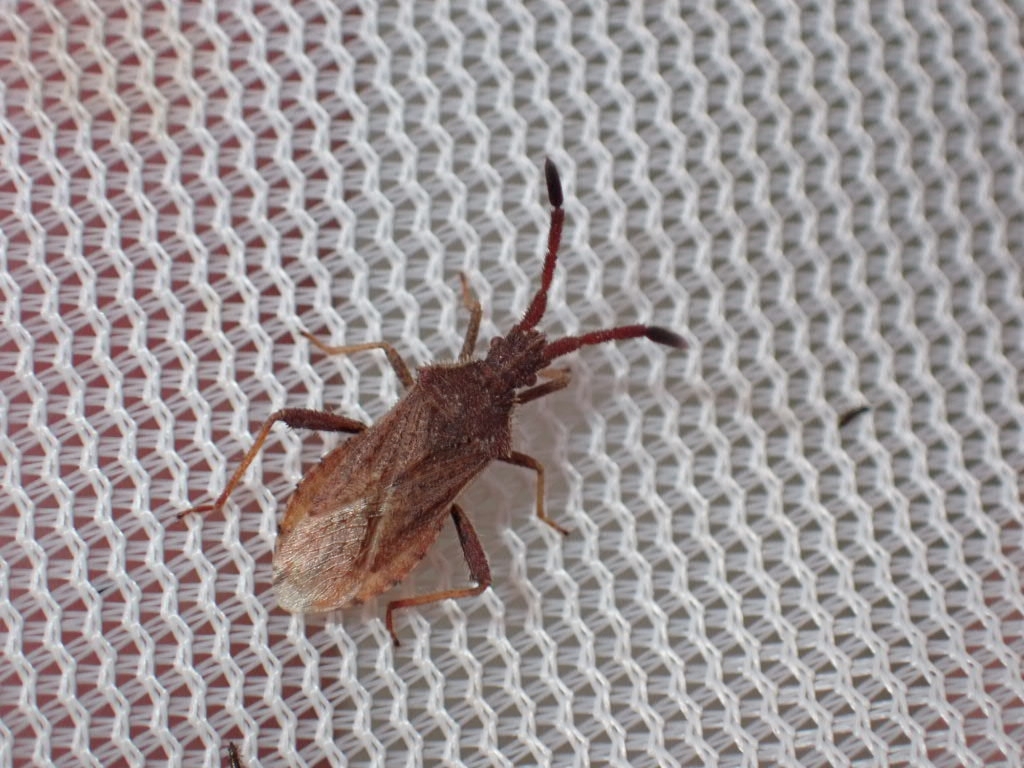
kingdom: Animalia
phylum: Arthropoda
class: Insecta
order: Hemiptera
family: Coreidae
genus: Coriomeris
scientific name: Coriomeris denticulatus
